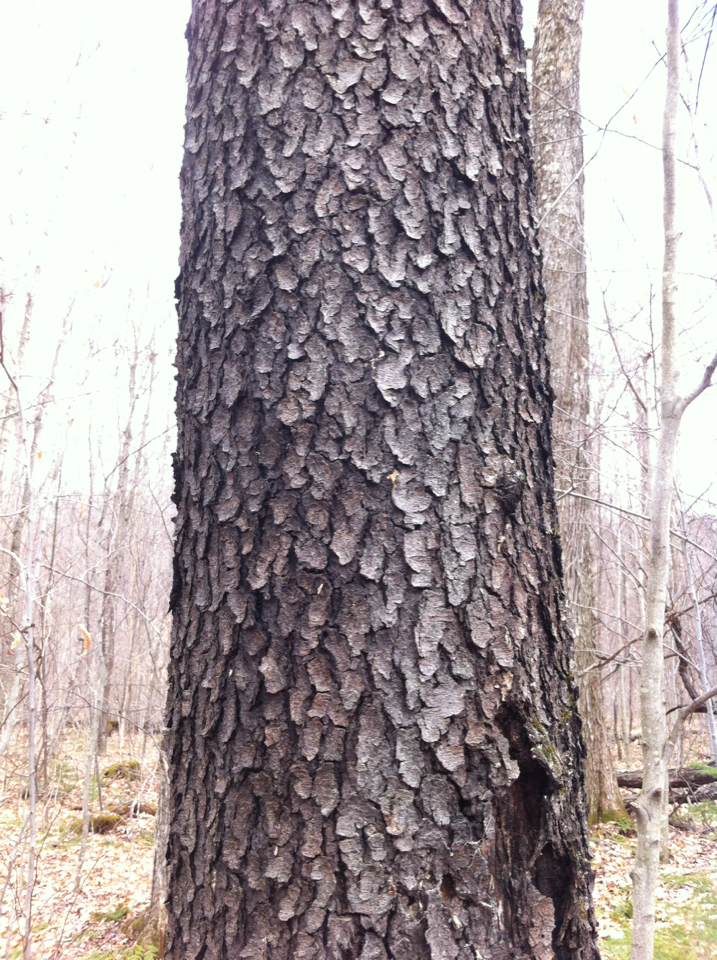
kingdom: Plantae
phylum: Tracheophyta
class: Magnoliopsida
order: Rosales
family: Rosaceae
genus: Prunus
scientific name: Prunus serotina
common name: Black cherry
